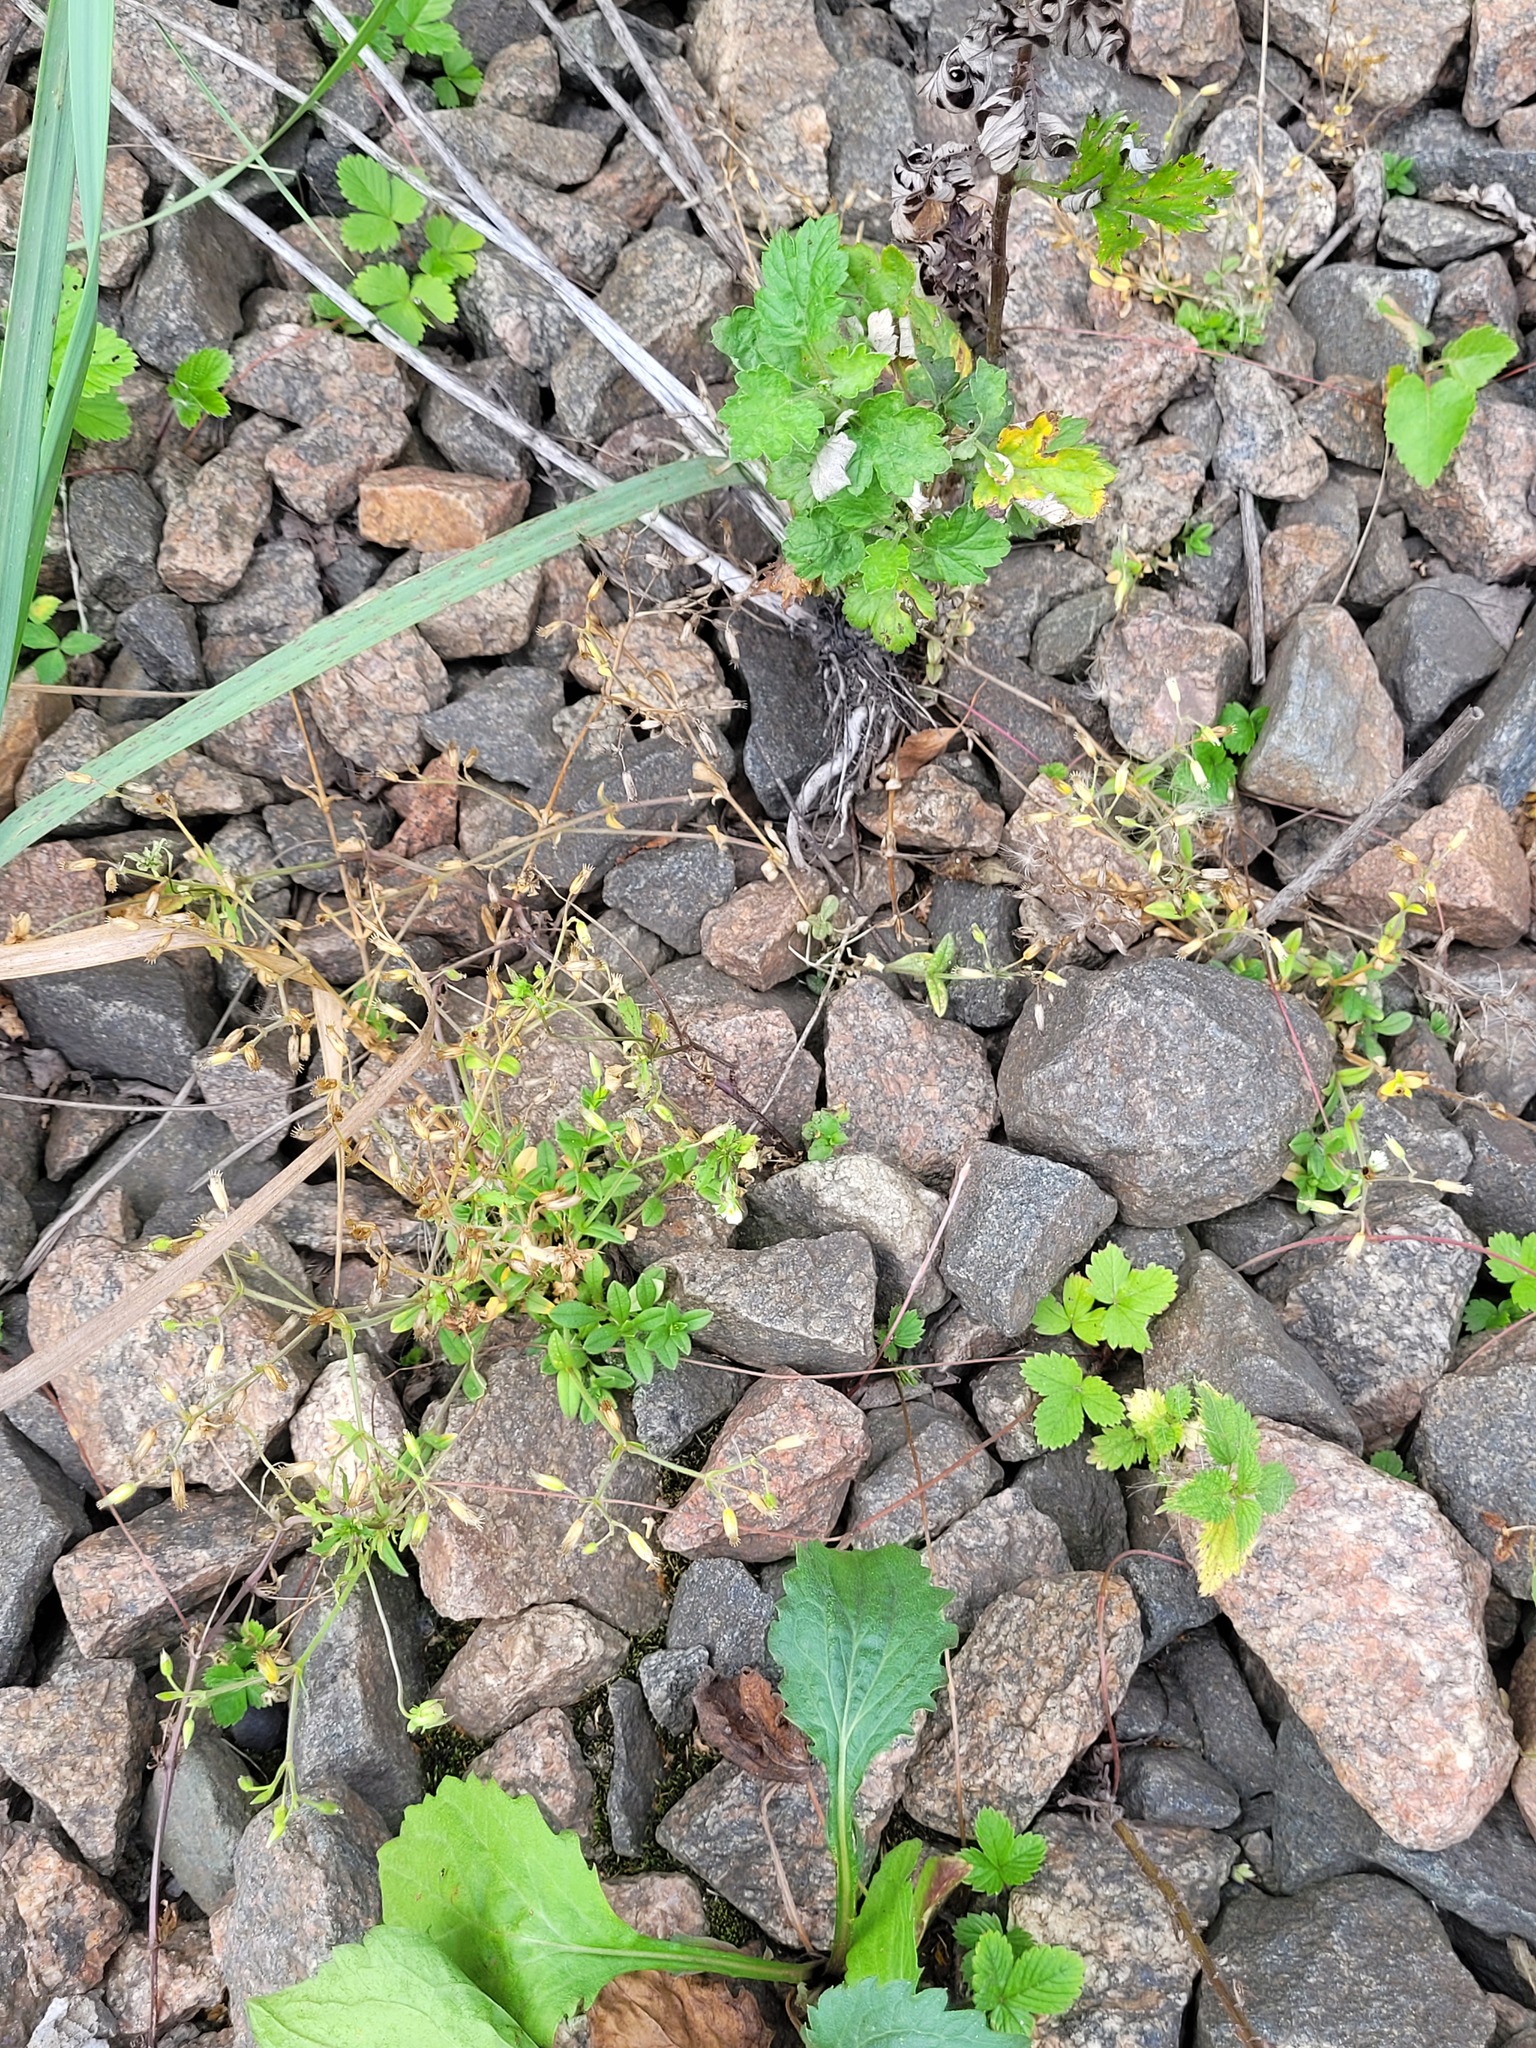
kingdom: Plantae
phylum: Tracheophyta
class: Magnoliopsida
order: Caryophyllales
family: Caryophyllaceae
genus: Cerastium
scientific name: Cerastium holosteoides
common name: Big chickweed
